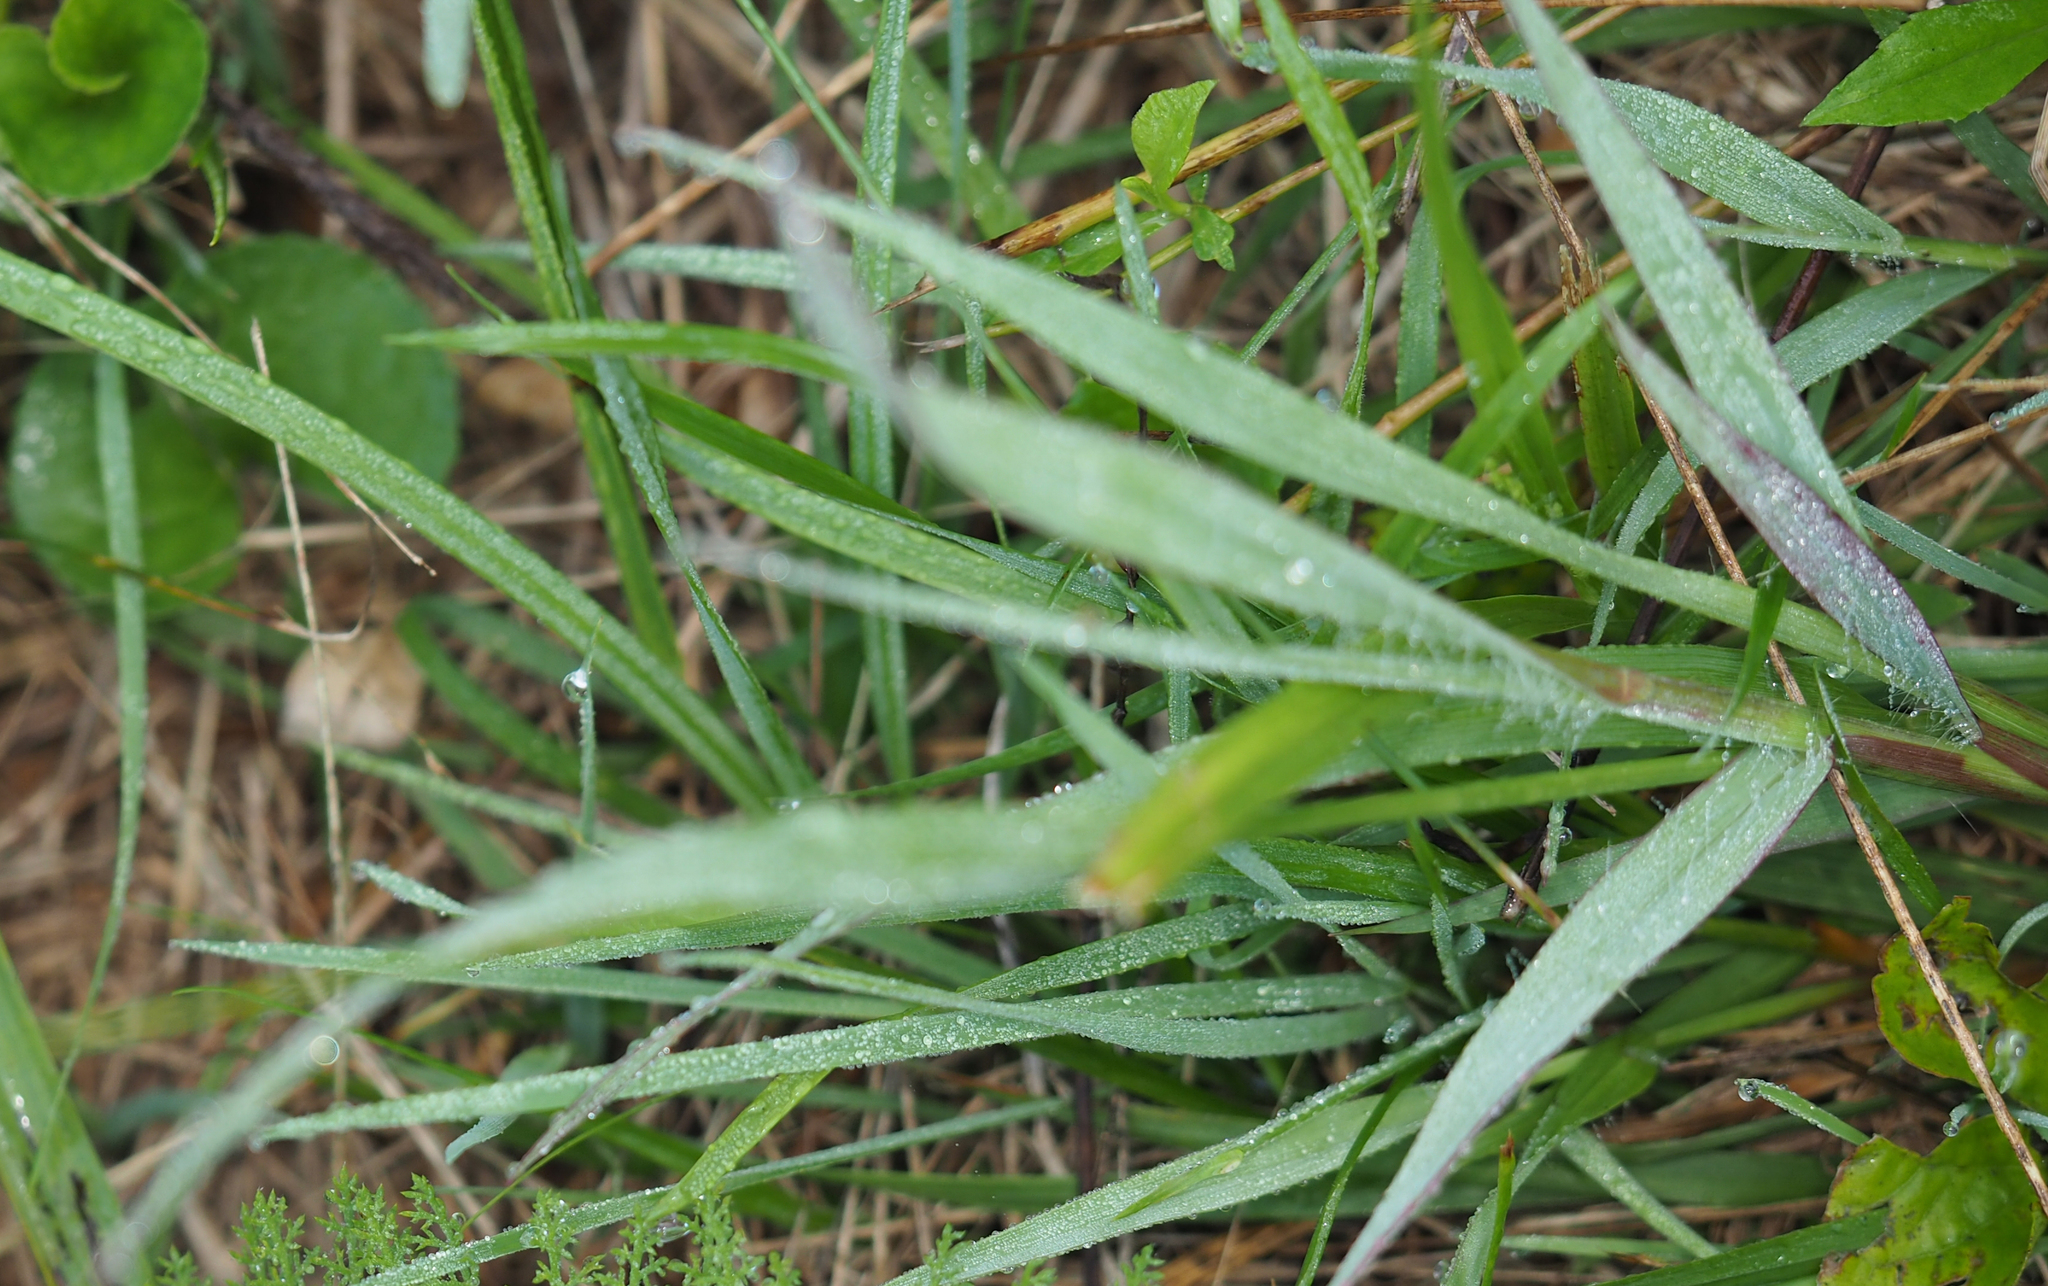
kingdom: Plantae
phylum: Tracheophyta
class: Liliopsida
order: Poales
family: Poaceae
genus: Setaria
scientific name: Setaria parviflora
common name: Knotroot bristle-grass
